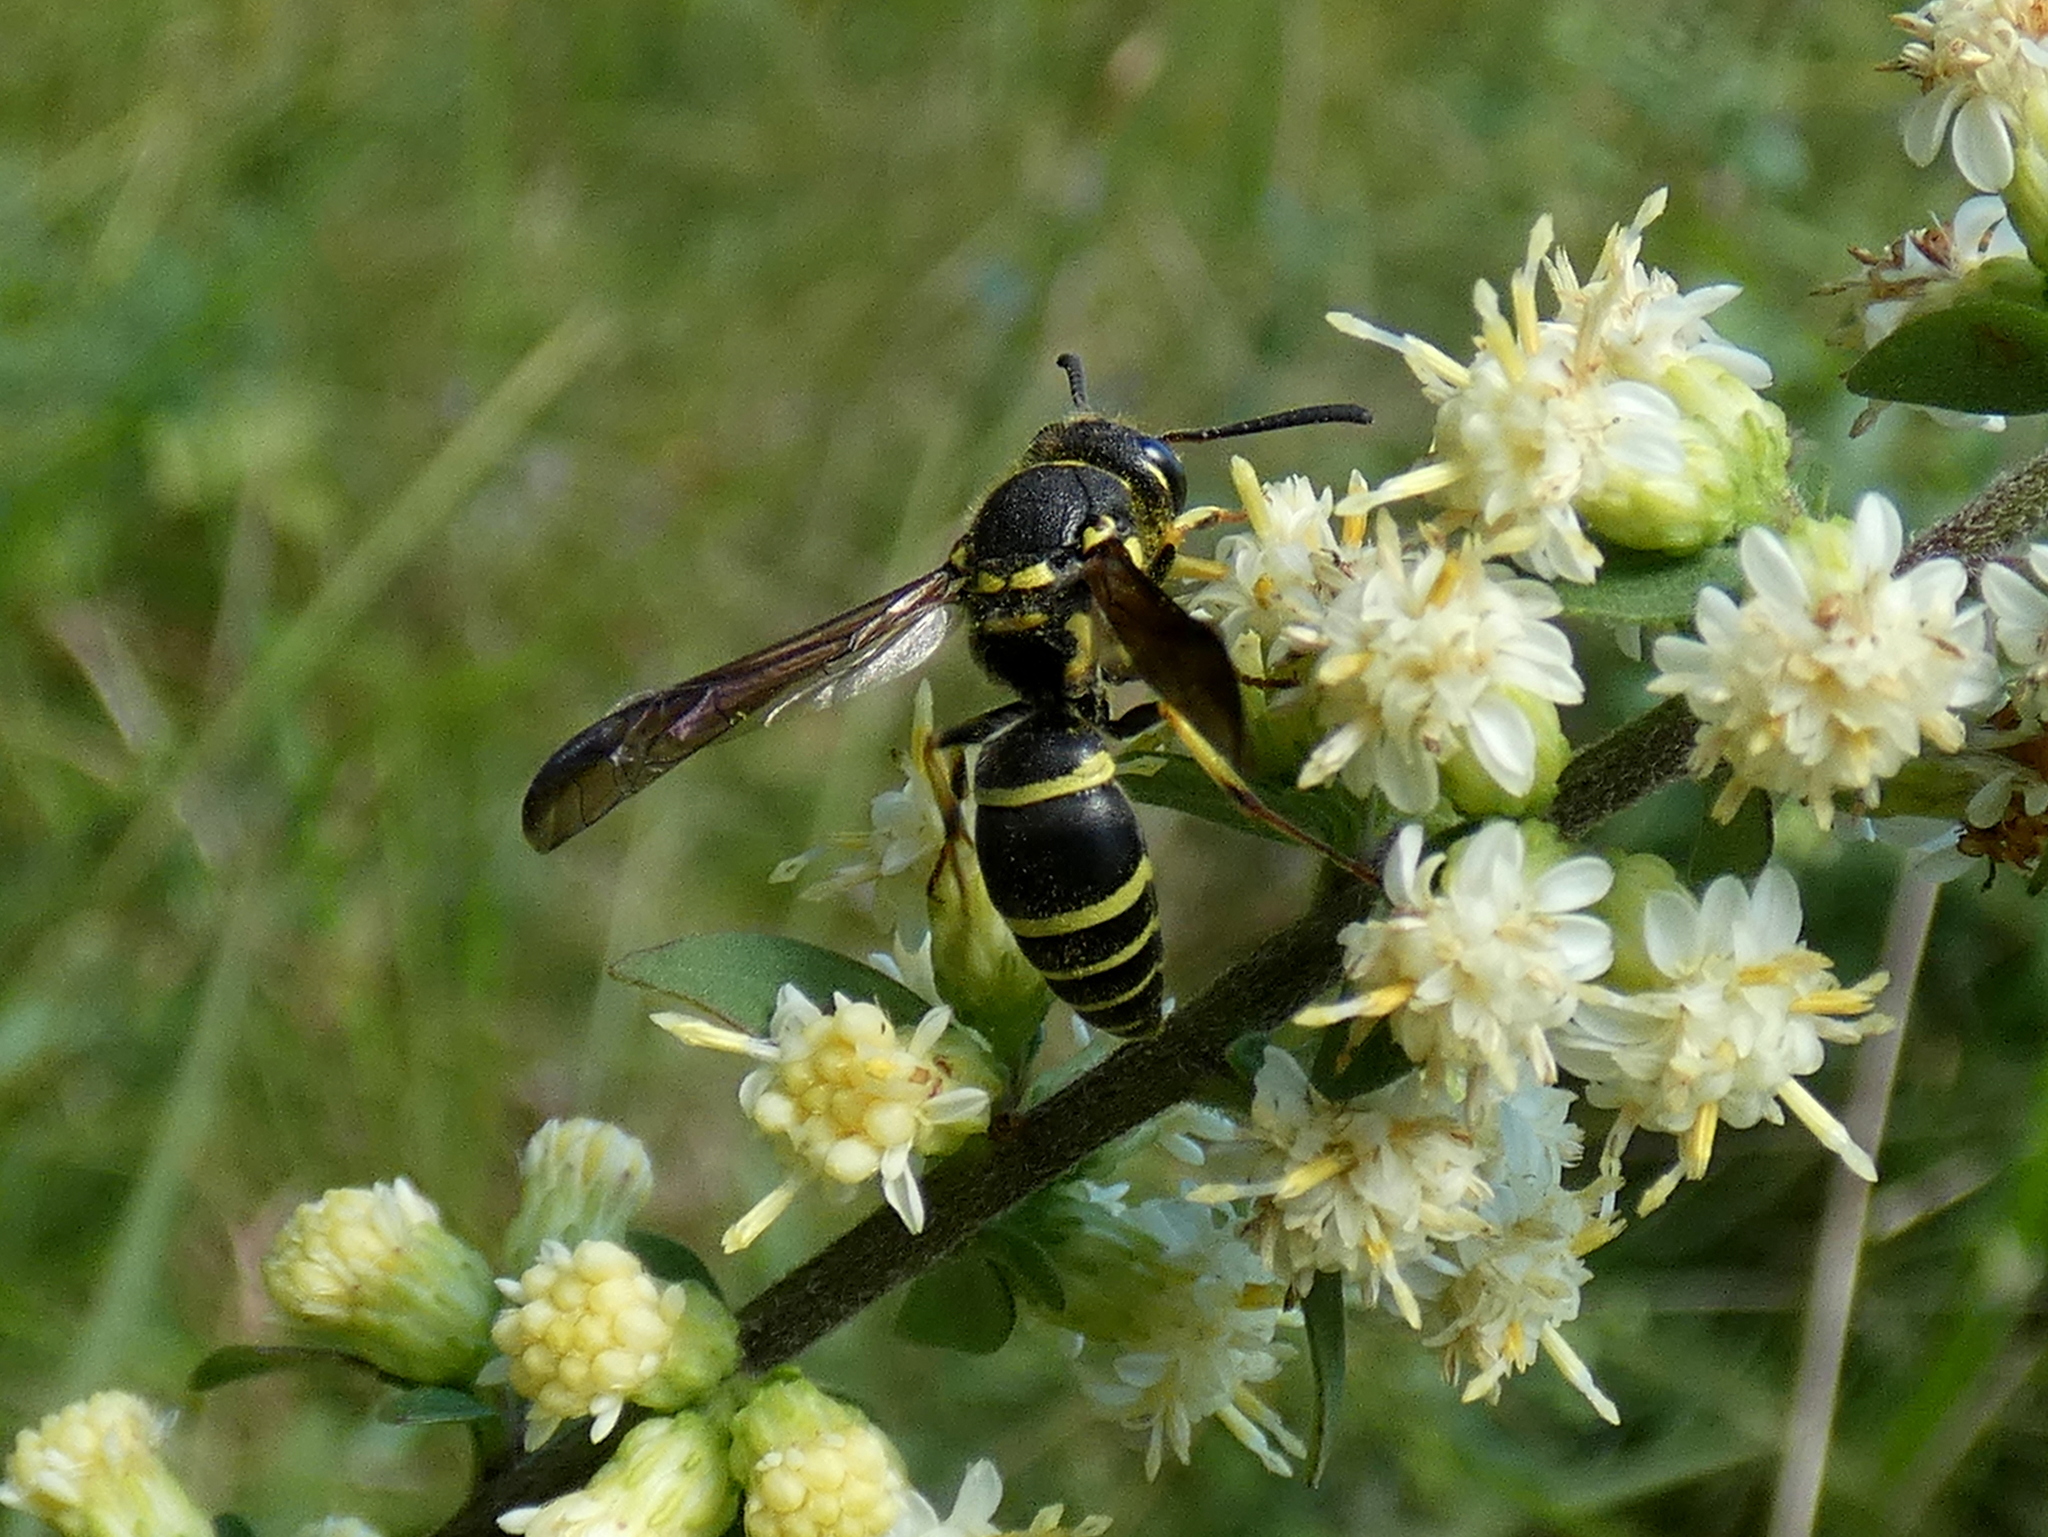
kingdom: Animalia
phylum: Arthropoda
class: Insecta
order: Hymenoptera
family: Vespidae
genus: Ancistrocerus
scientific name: Ancistrocerus catskill
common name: Vespid wasp
